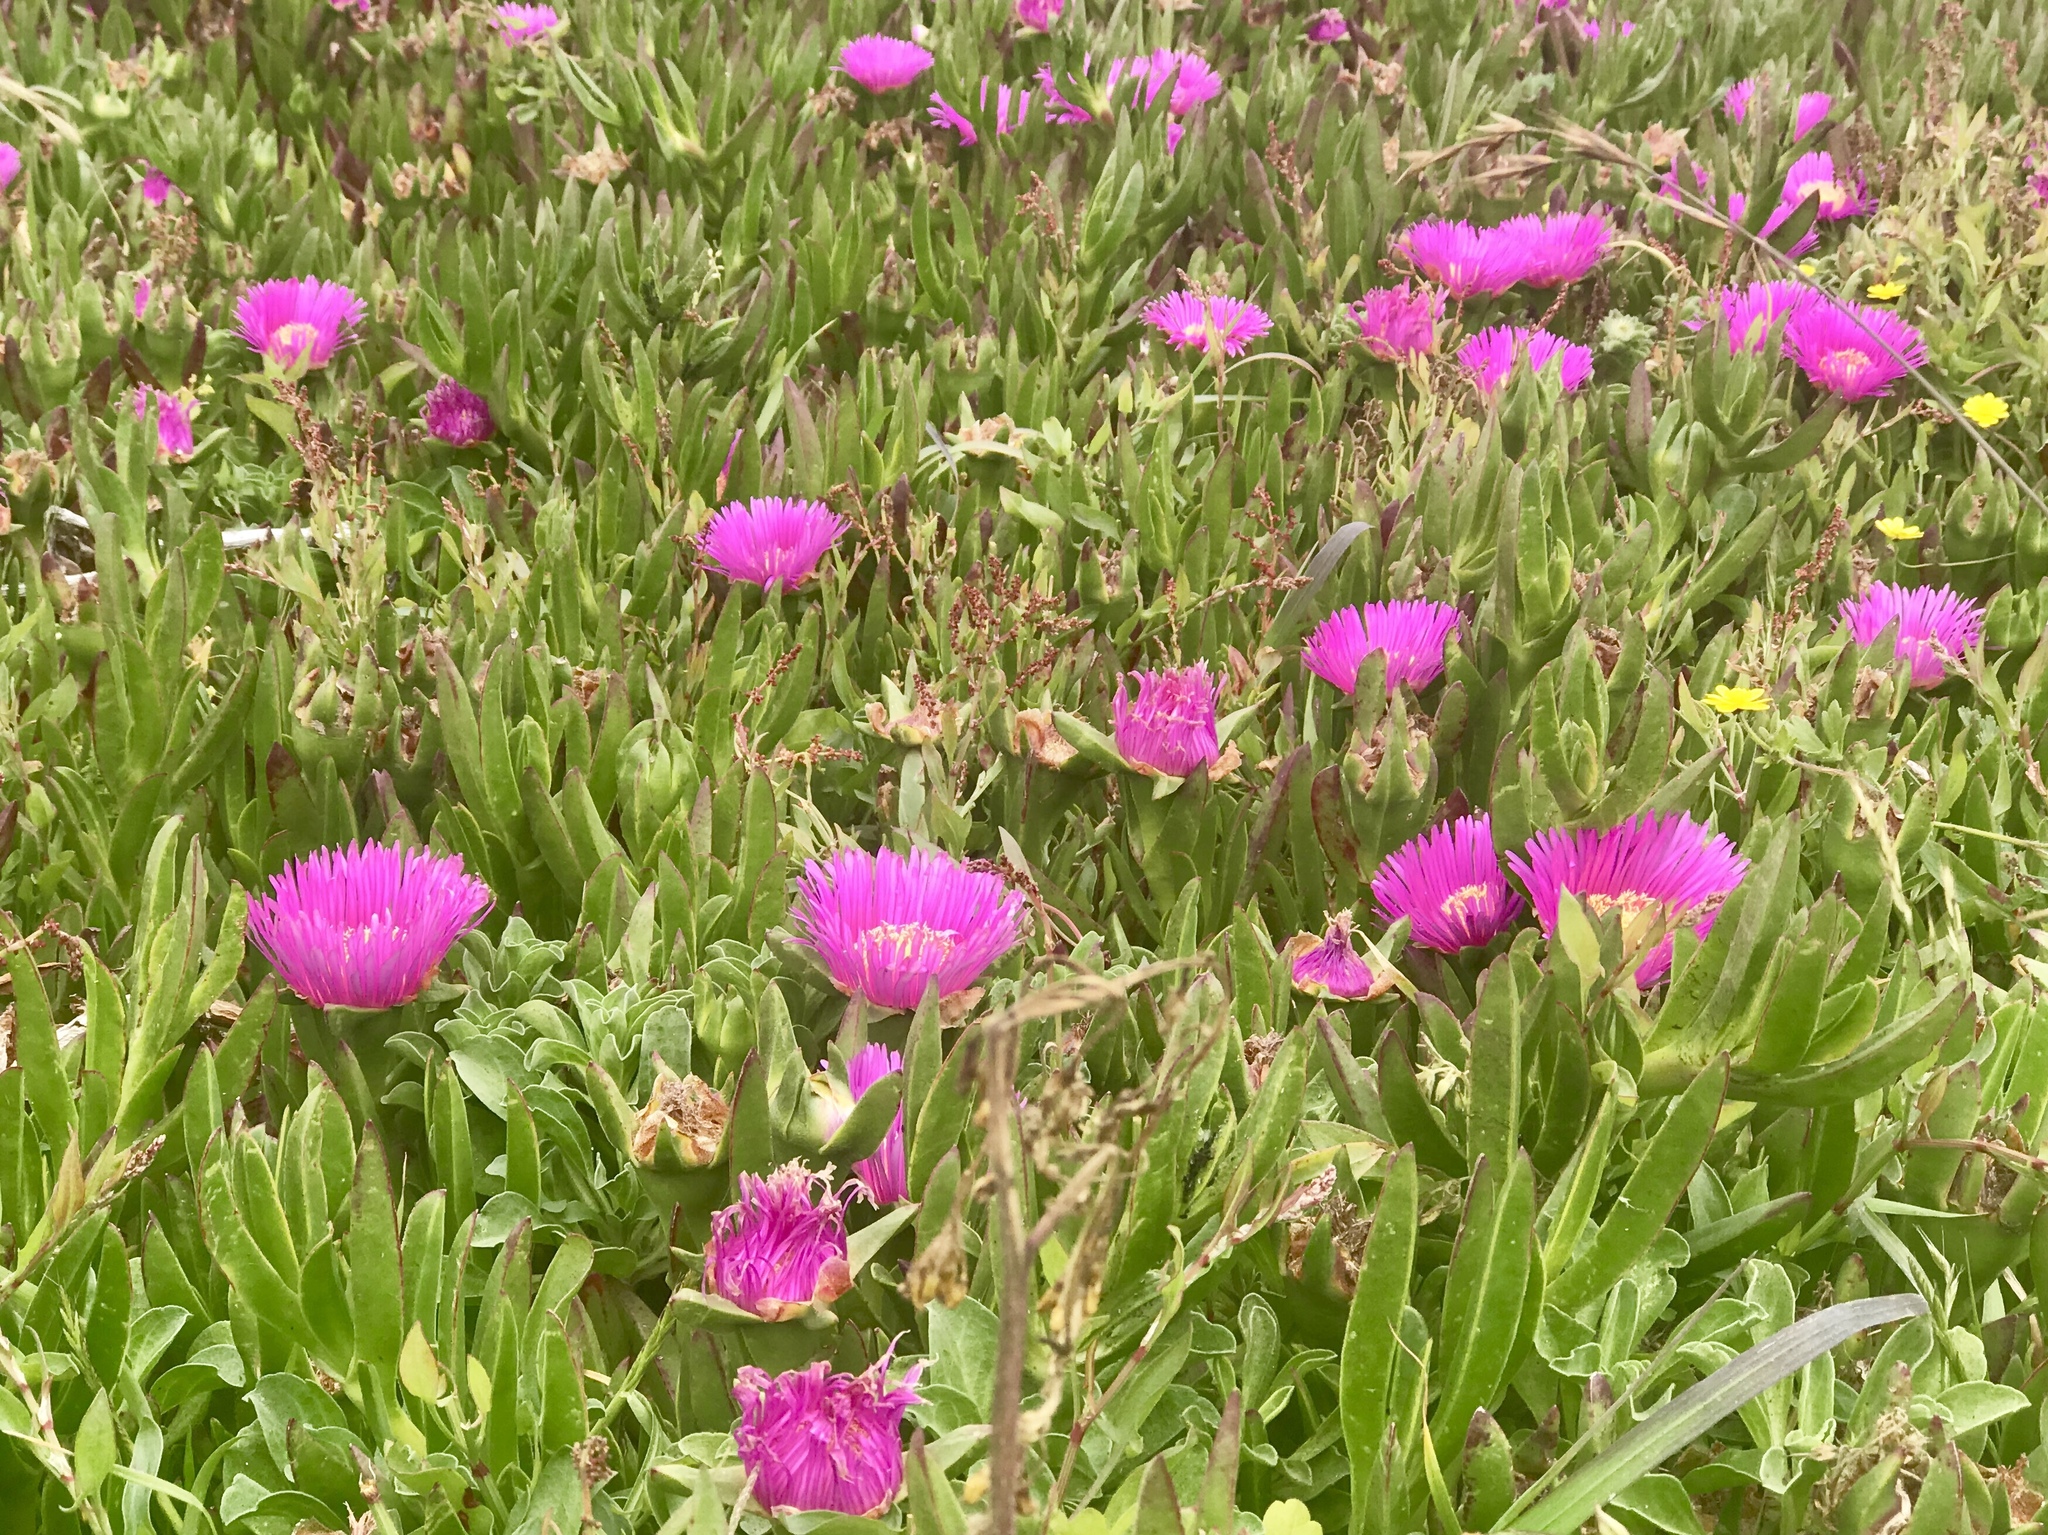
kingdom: Plantae
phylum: Tracheophyta
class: Magnoliopsida
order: Caryophyllales
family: Aizoaceae
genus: Carpobrotus
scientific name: Carpobrotus edulis
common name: Hottentot-fig
